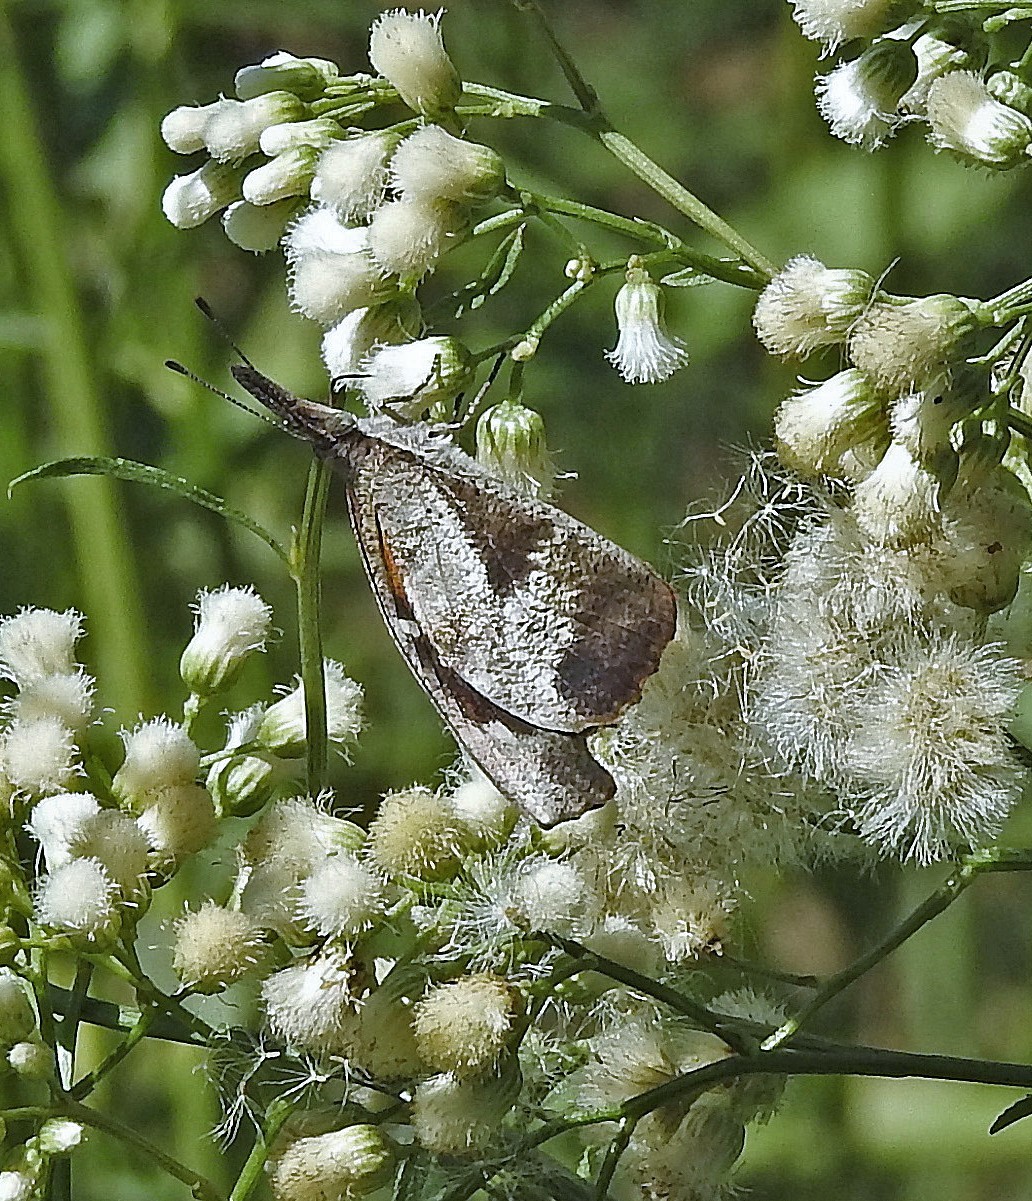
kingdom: Animalia
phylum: Arthropoda
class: Insecta
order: Lepidoptera
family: Nymphalidae
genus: Libytheana
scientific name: Libytheana carinenta
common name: American snout
